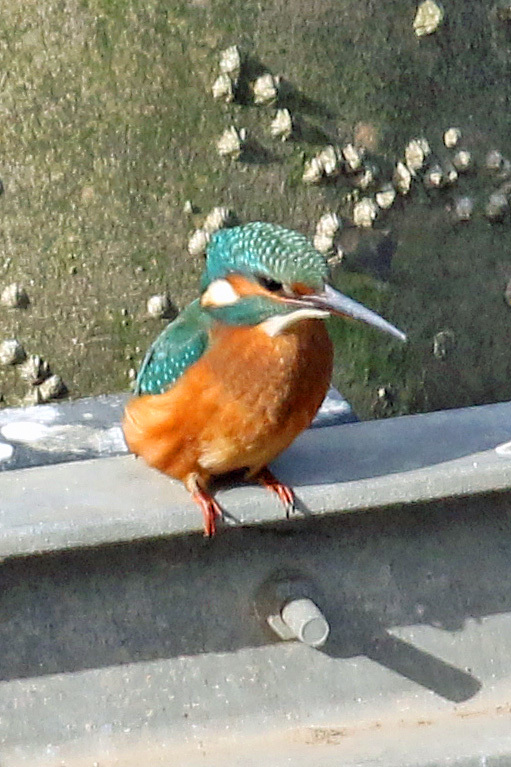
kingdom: Animalia
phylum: Chordata
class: Aves
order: Coraciiformes
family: Alcedinidae
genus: Alcedo
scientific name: Alcedo atthis
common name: Common kingfisher
